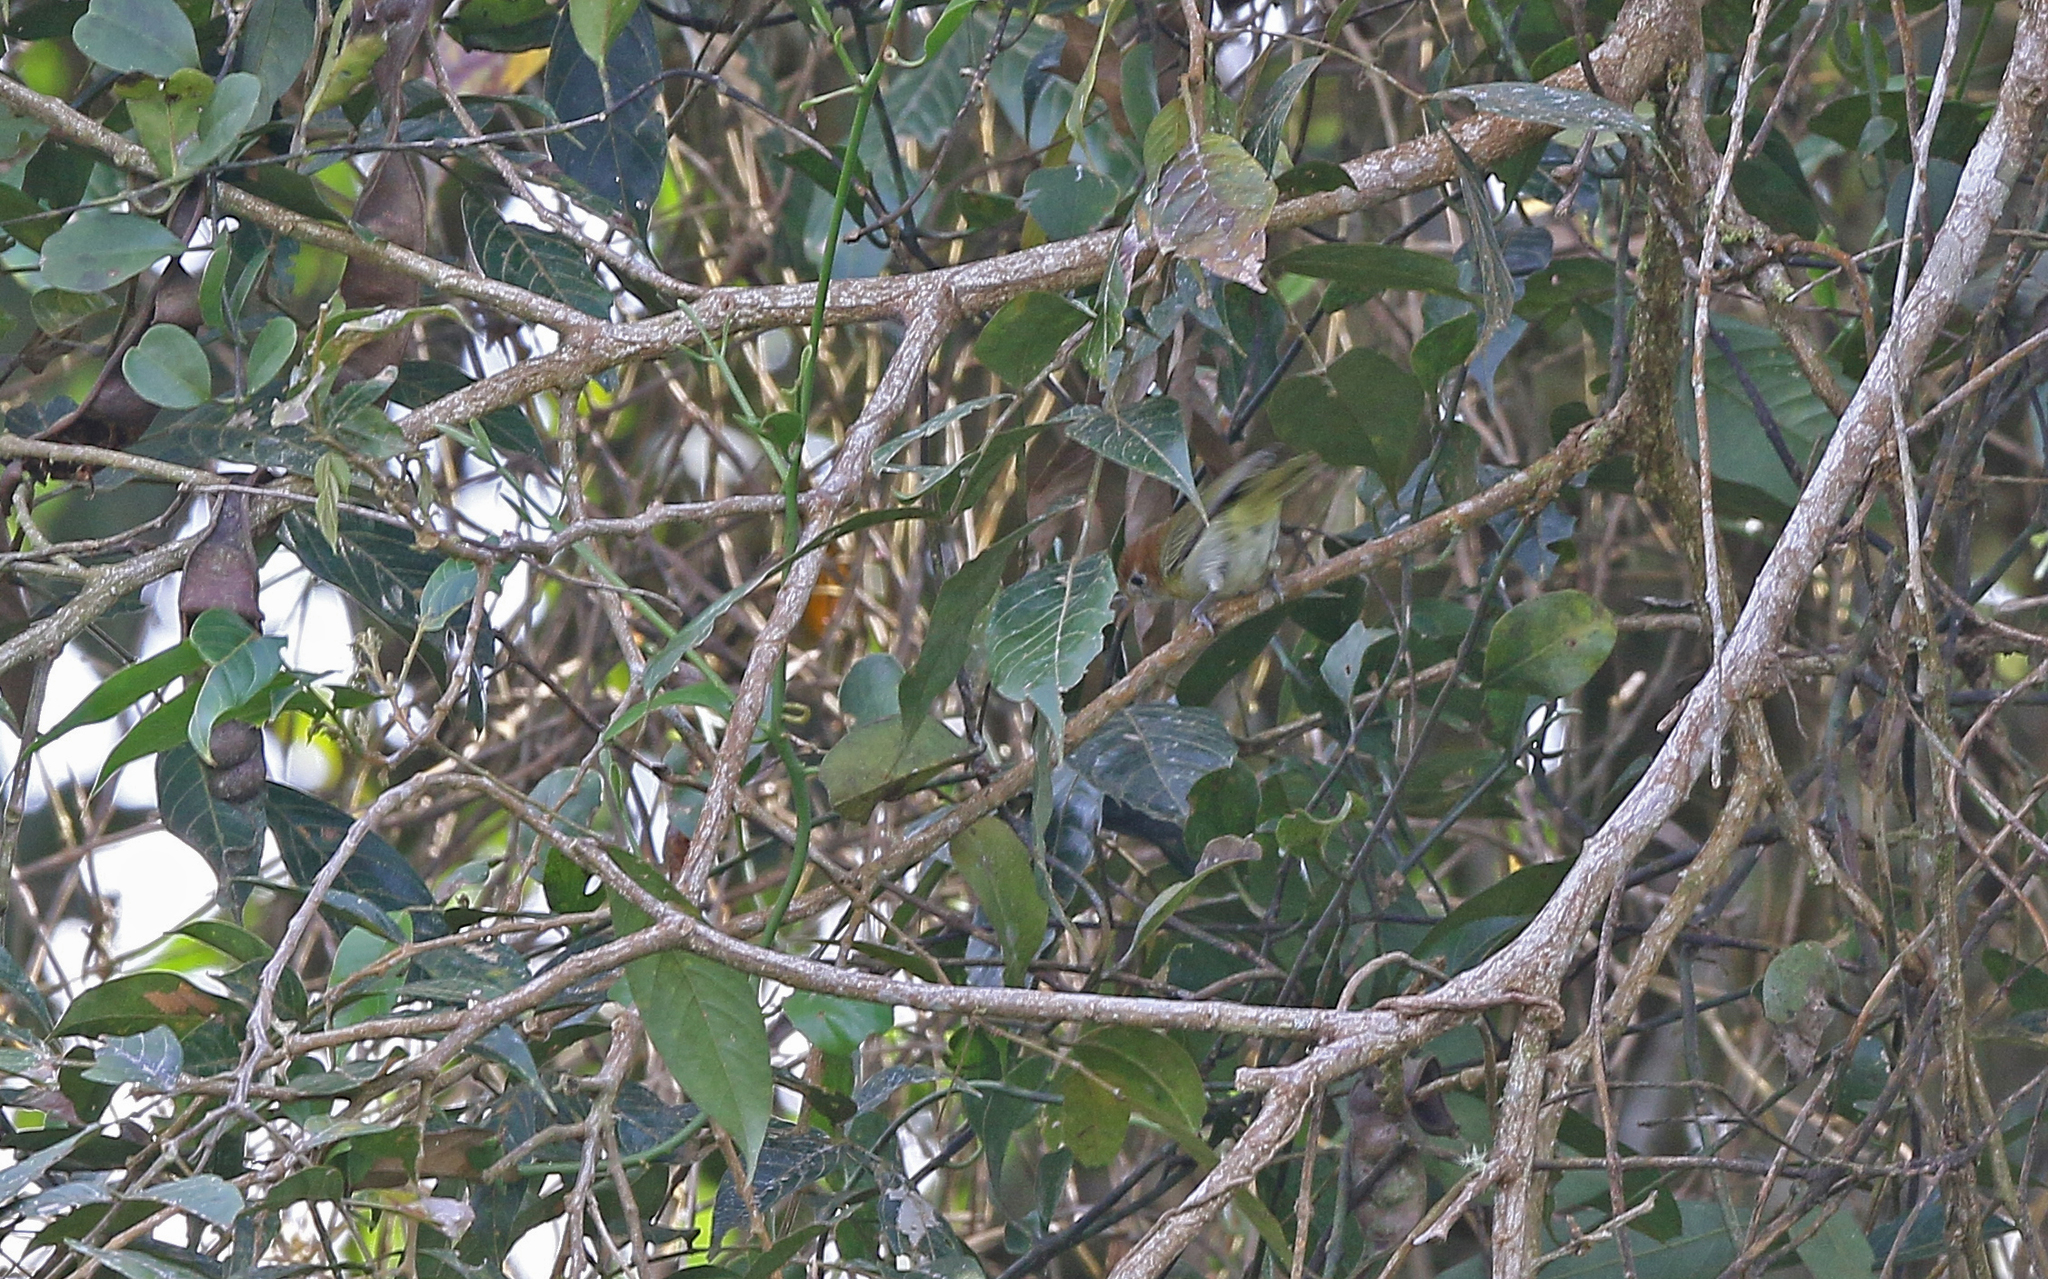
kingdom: Animalia
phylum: Chordata
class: Aves
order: Passeriformes
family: Vireonidae
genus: Hylophilus
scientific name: Hylophilus semibrunneus
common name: Rufous-naped greenlet
